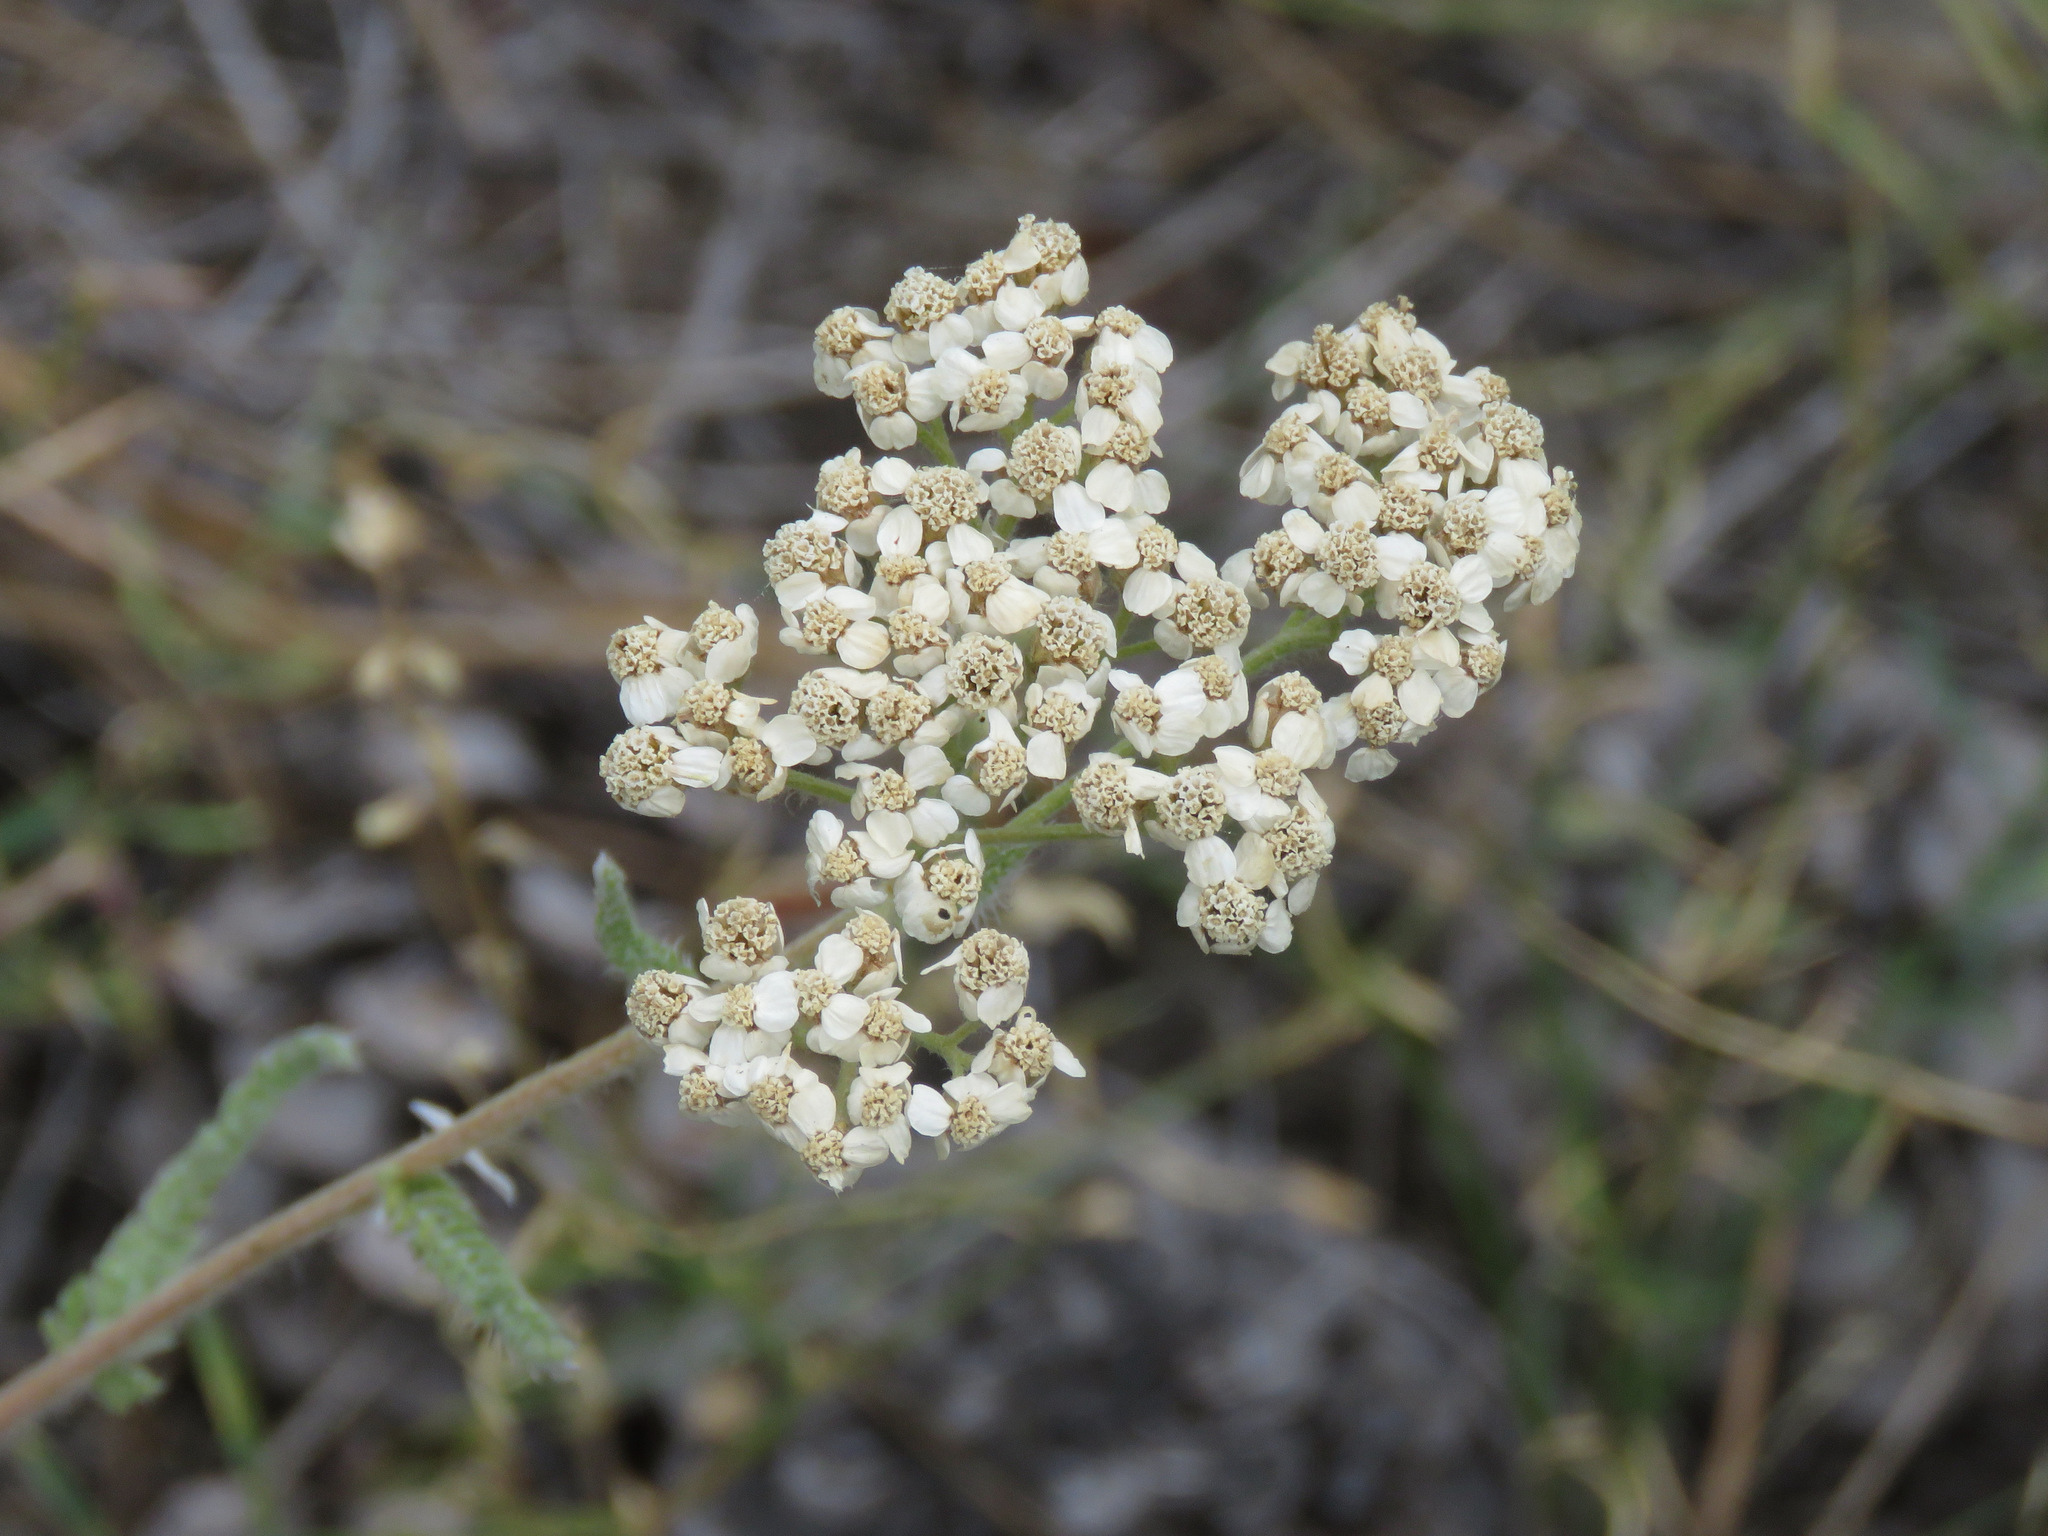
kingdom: Plantae
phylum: Tracheophyta
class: Magnoliopsida
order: Asterales
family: Asteraceae
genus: Achillea
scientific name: Achillea millefolium
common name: Yarrow
